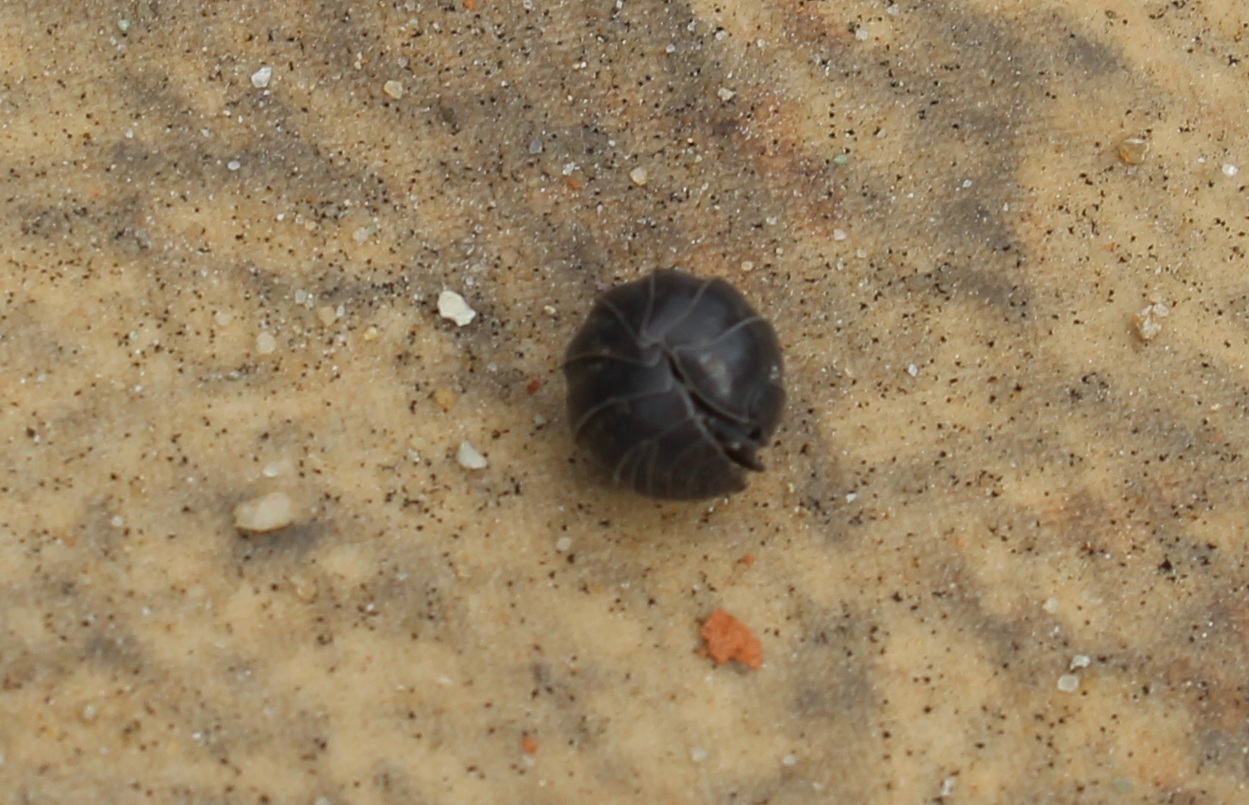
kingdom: Animalia
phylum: Arthropoda
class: Malacostraca
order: Isopoda
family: Armadillidiidae
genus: Armadillidium
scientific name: Armadillidium vulgare
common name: Common pill woodlouse
